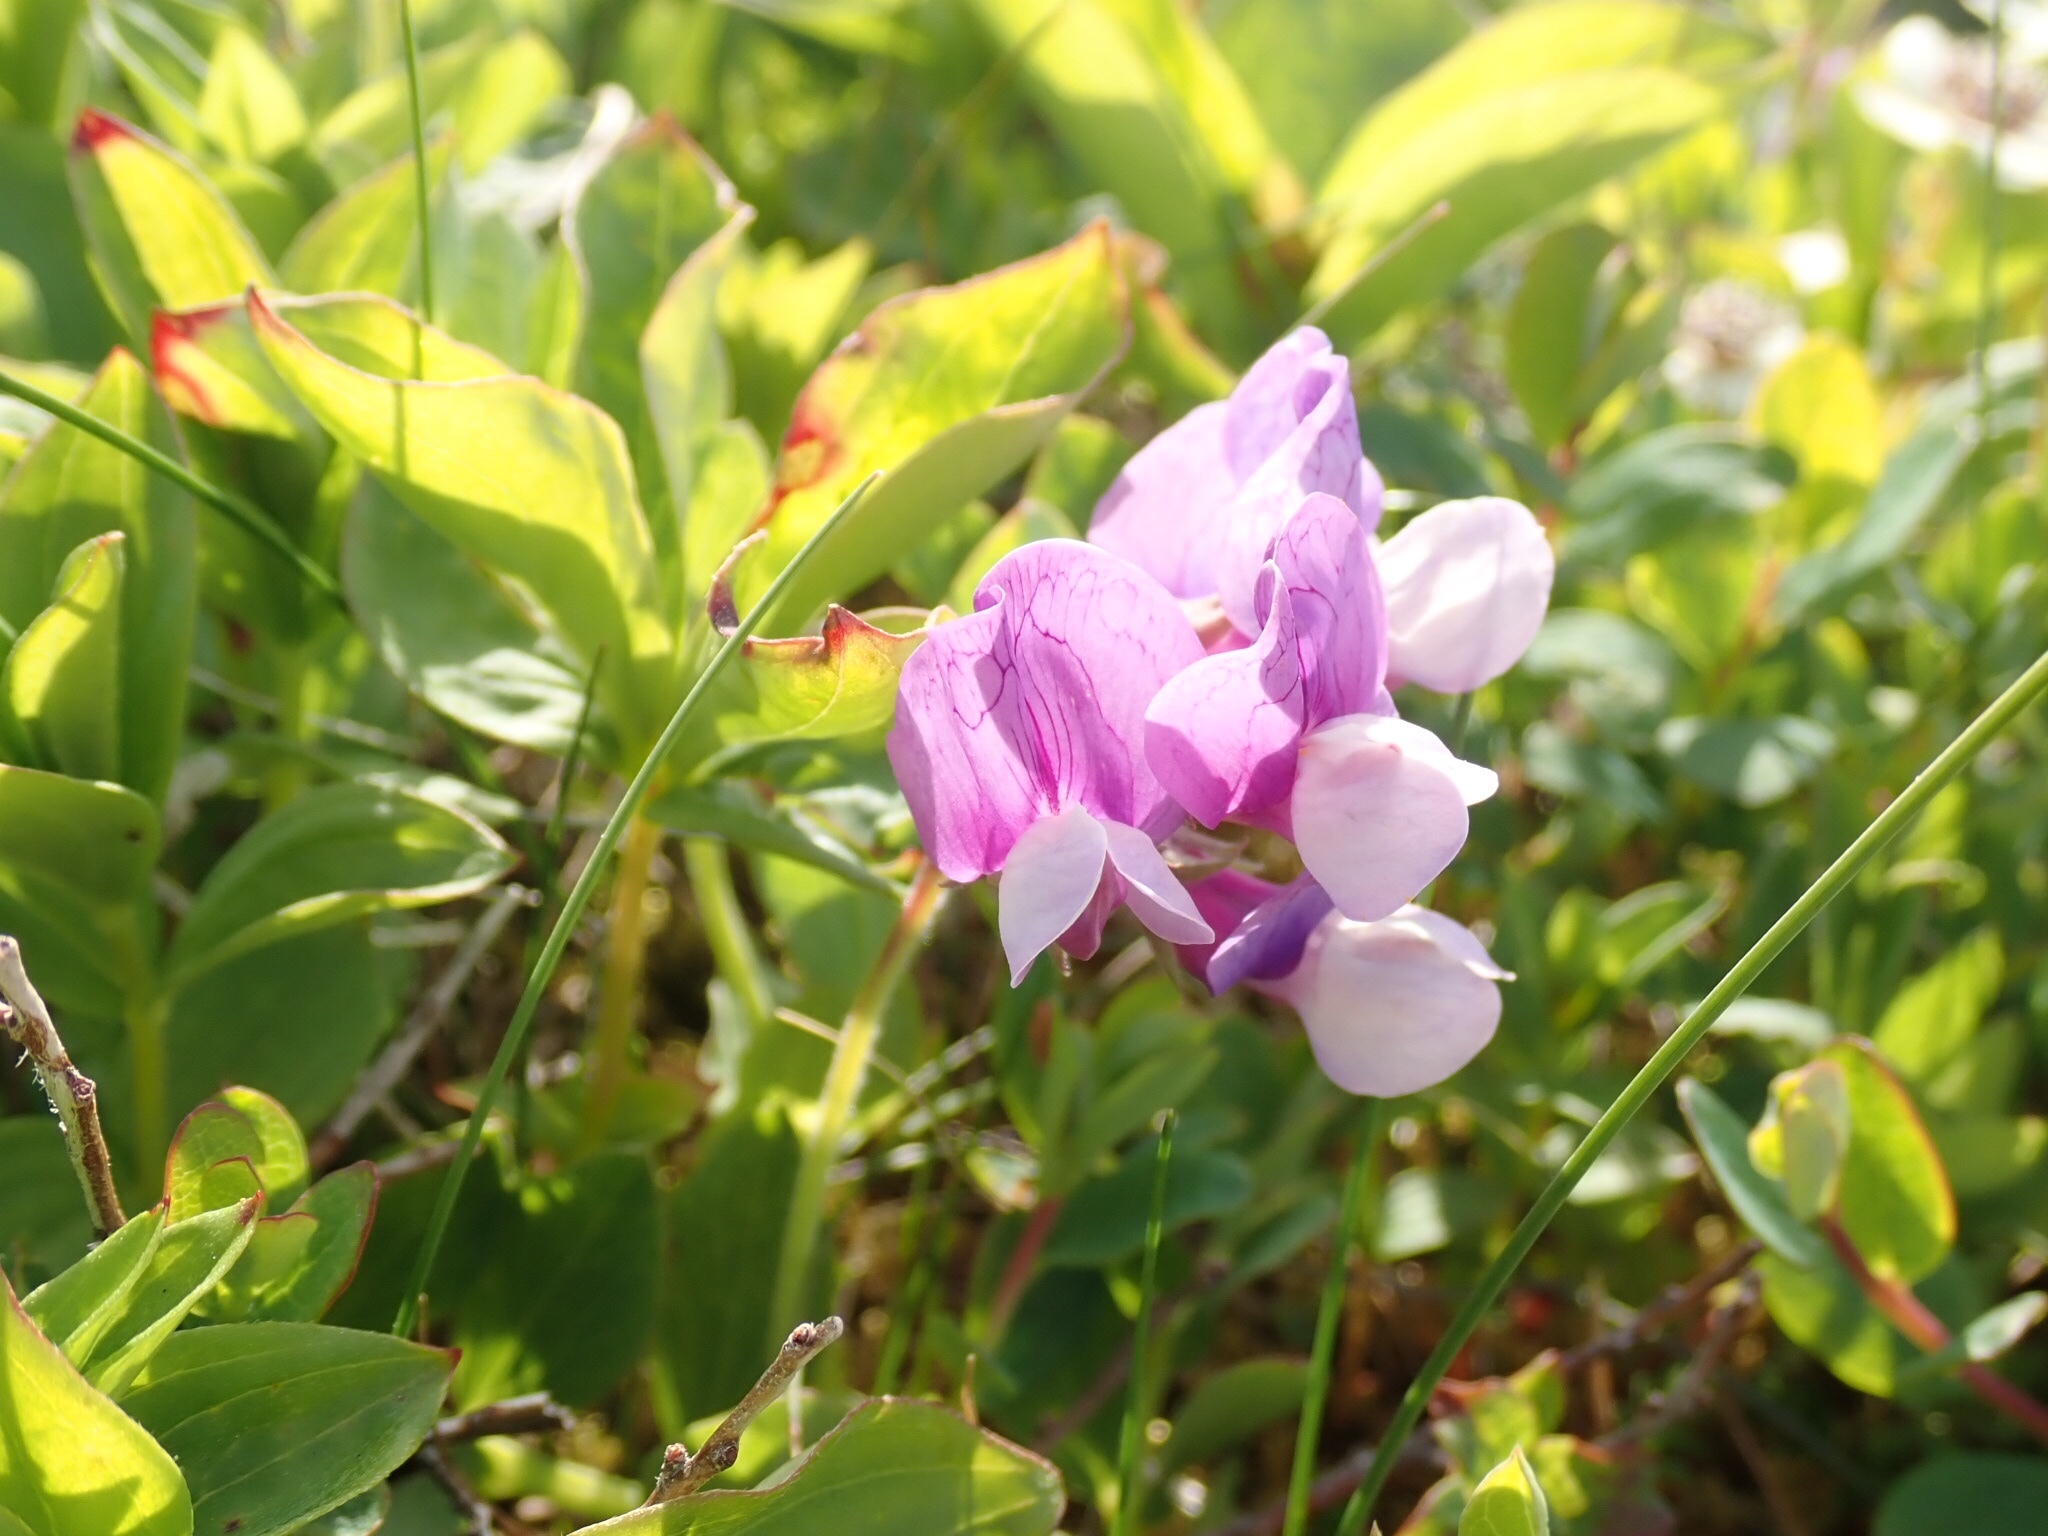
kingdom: Plantae
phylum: Tracheophyta
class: Magnoliopsida
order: Fabales
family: Fabaceae
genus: Lathyrus
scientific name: Lathyrus japonicus
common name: Sea pea
